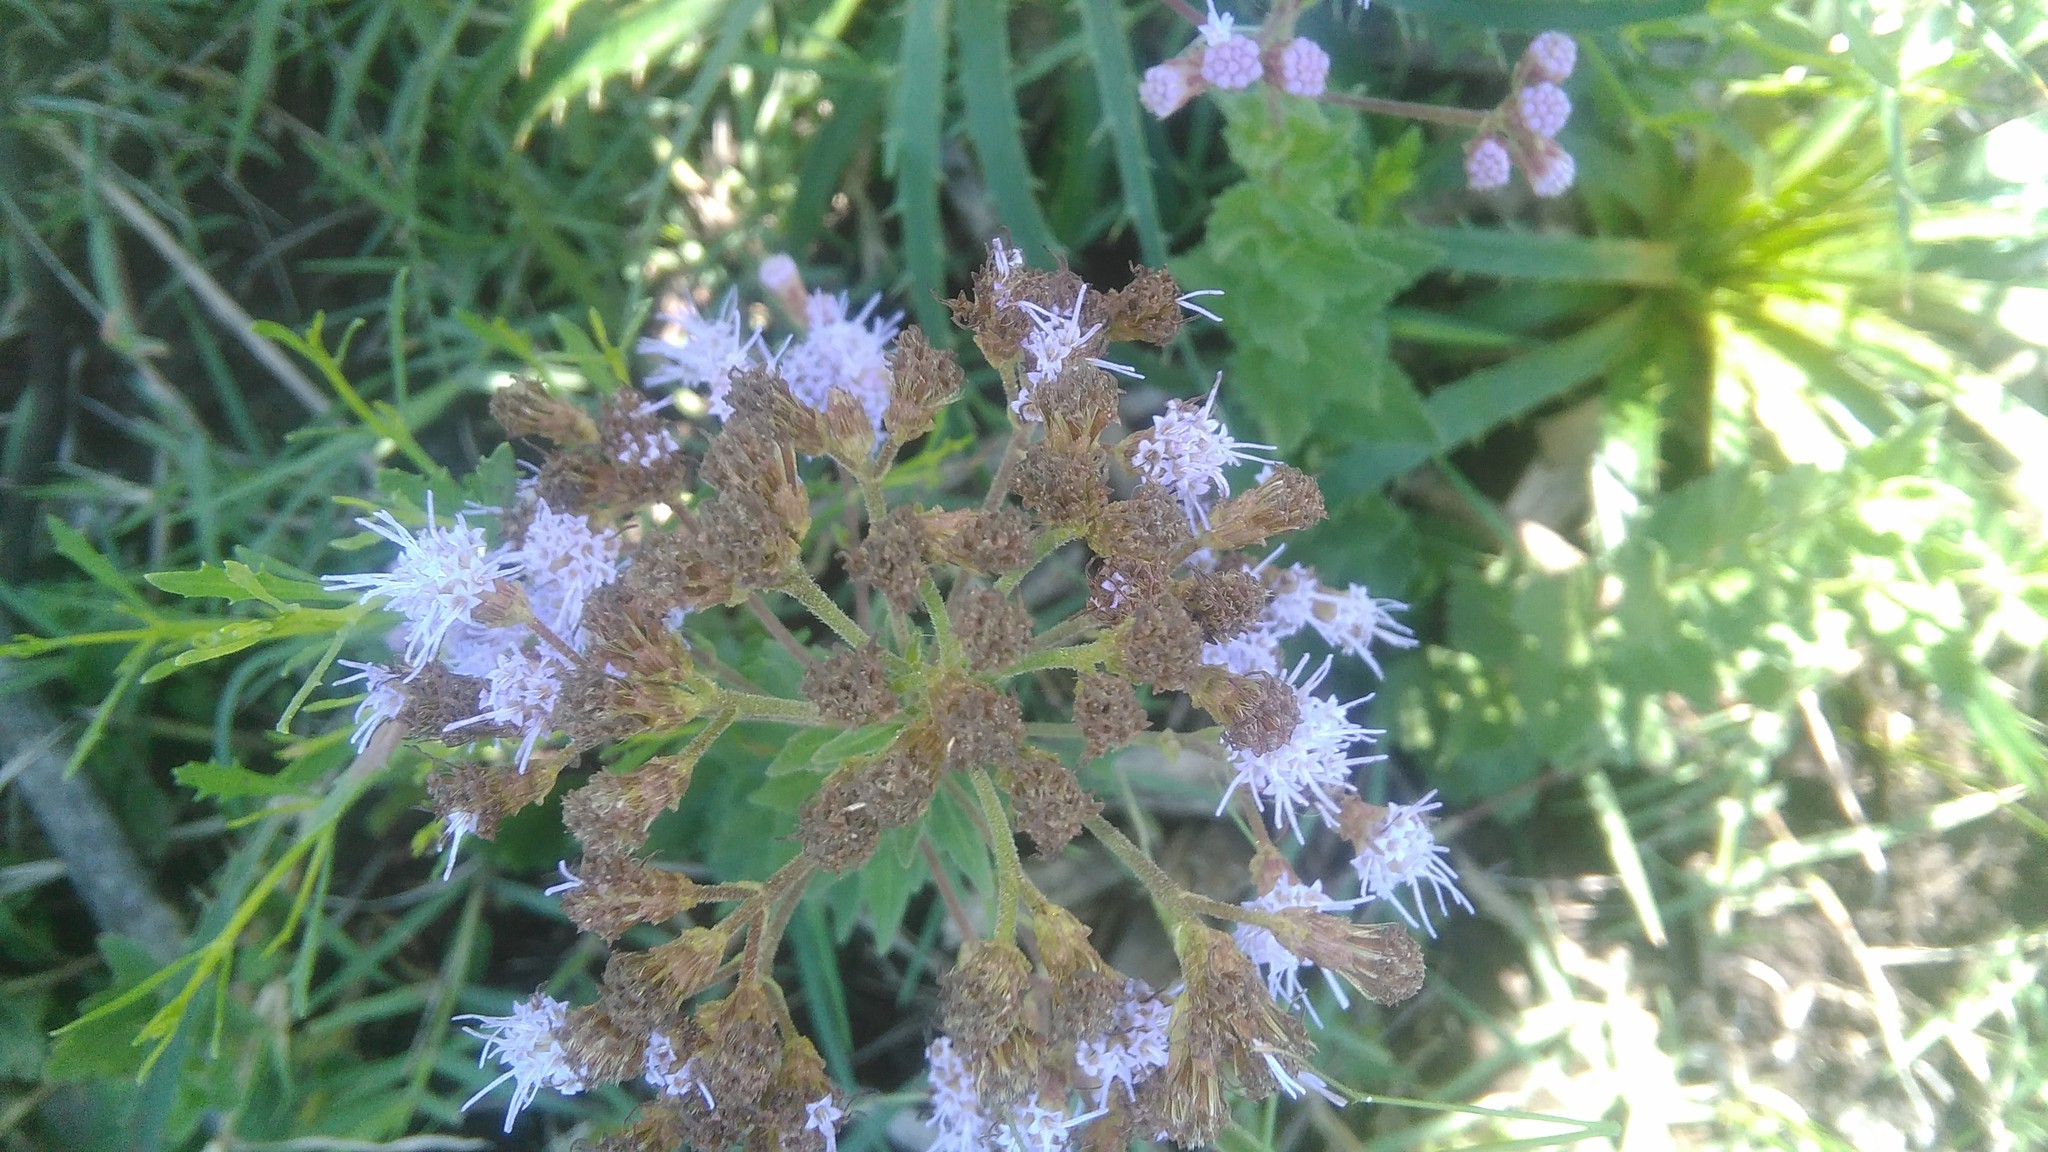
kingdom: Plantae
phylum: Tracheophyta
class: Magnoliopsida
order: Asterales
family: Asteraceae
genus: Chromolaena
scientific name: Chromolaena hirsuta
